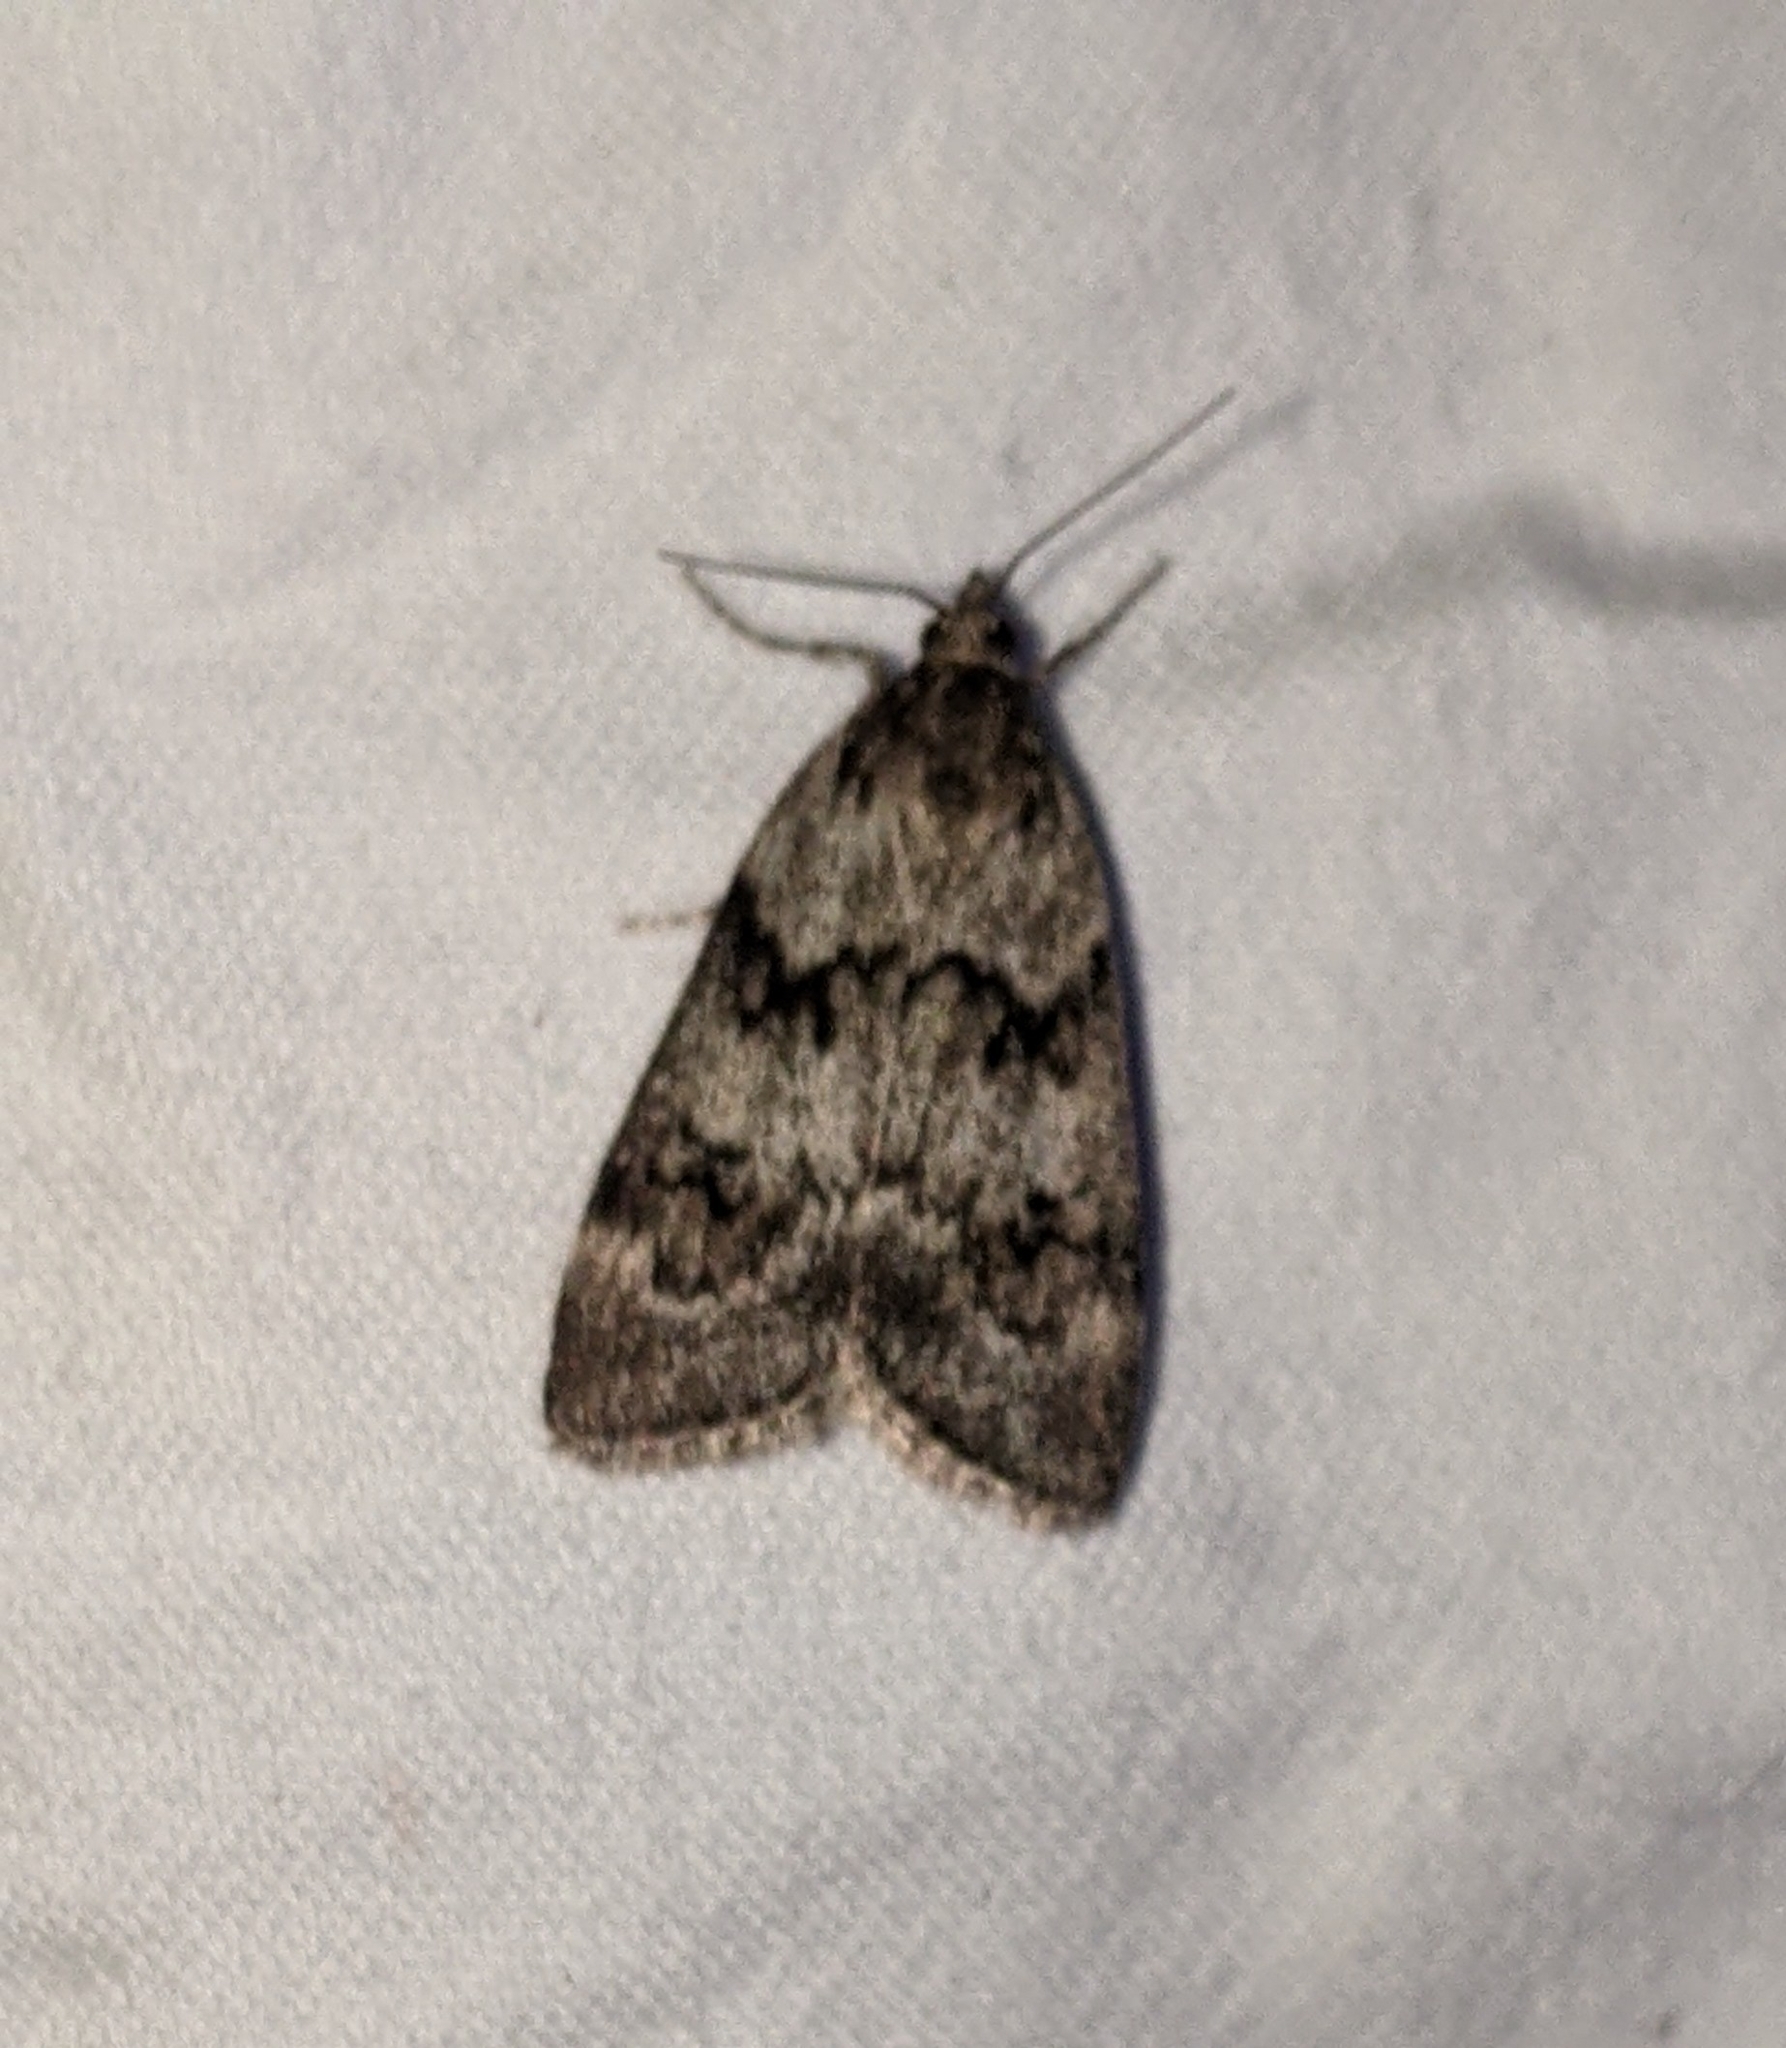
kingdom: Animalia
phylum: Arthropoda
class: Insecta
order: Lepidoptera
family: Crambidae
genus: Gesneria
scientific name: Gesneria centuriella
